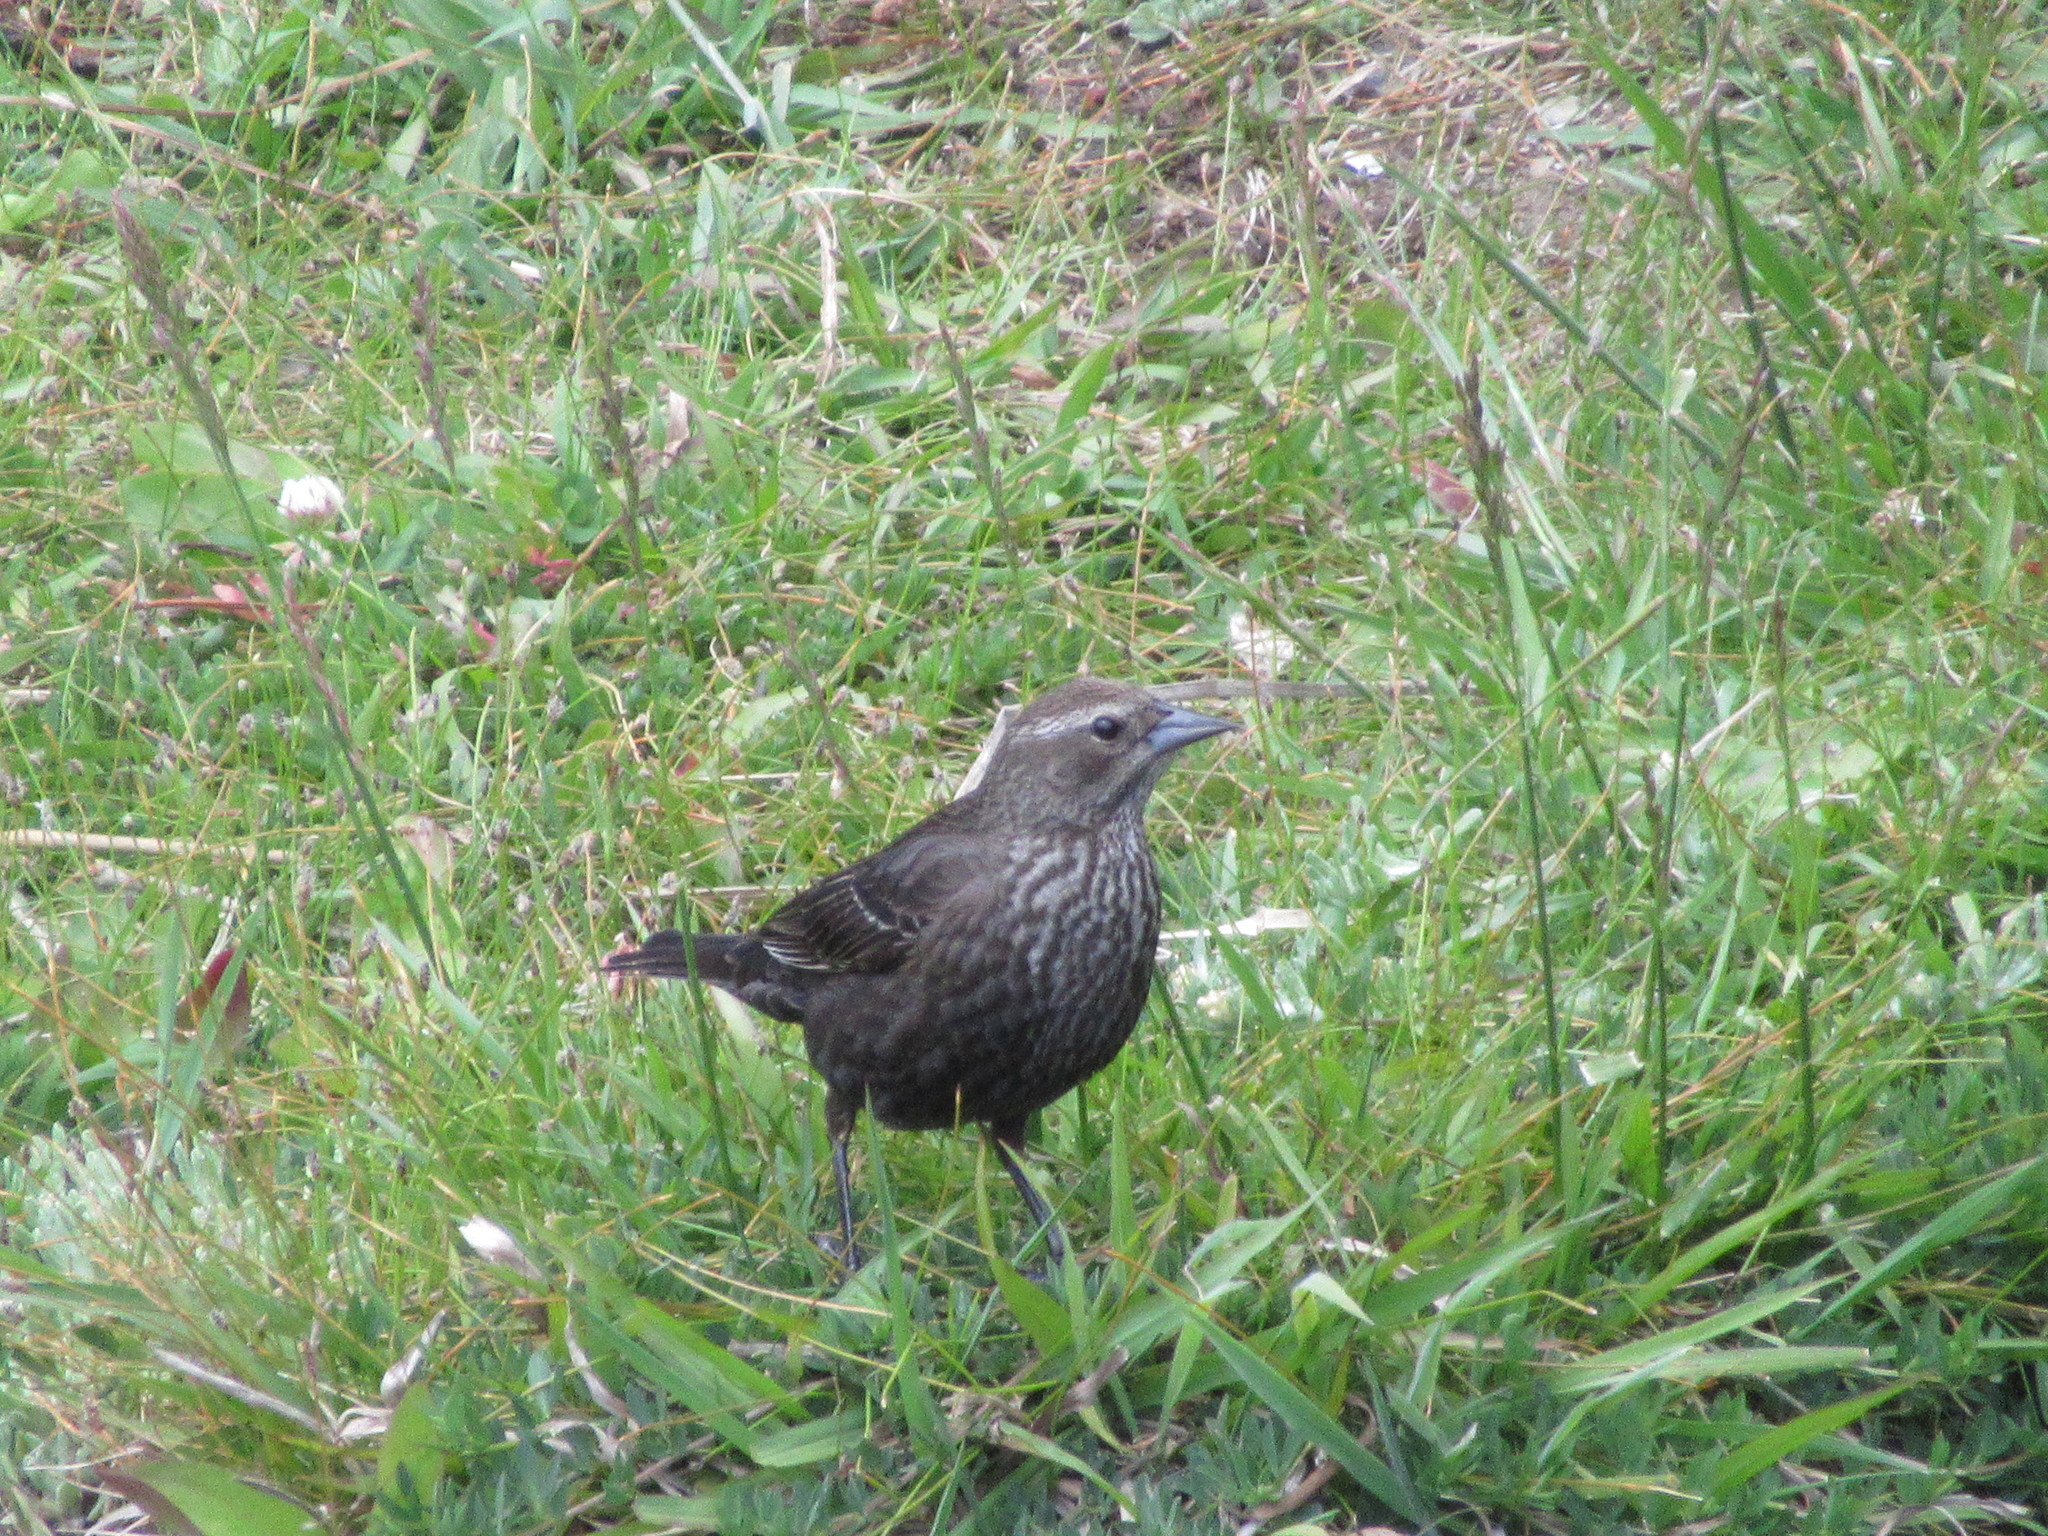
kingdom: Animalia
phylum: Chordata
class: Aves
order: Passeriformes
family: Icteridae
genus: Agelaius
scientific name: Agelaius phoeniceus
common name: Red-winged blackbird
